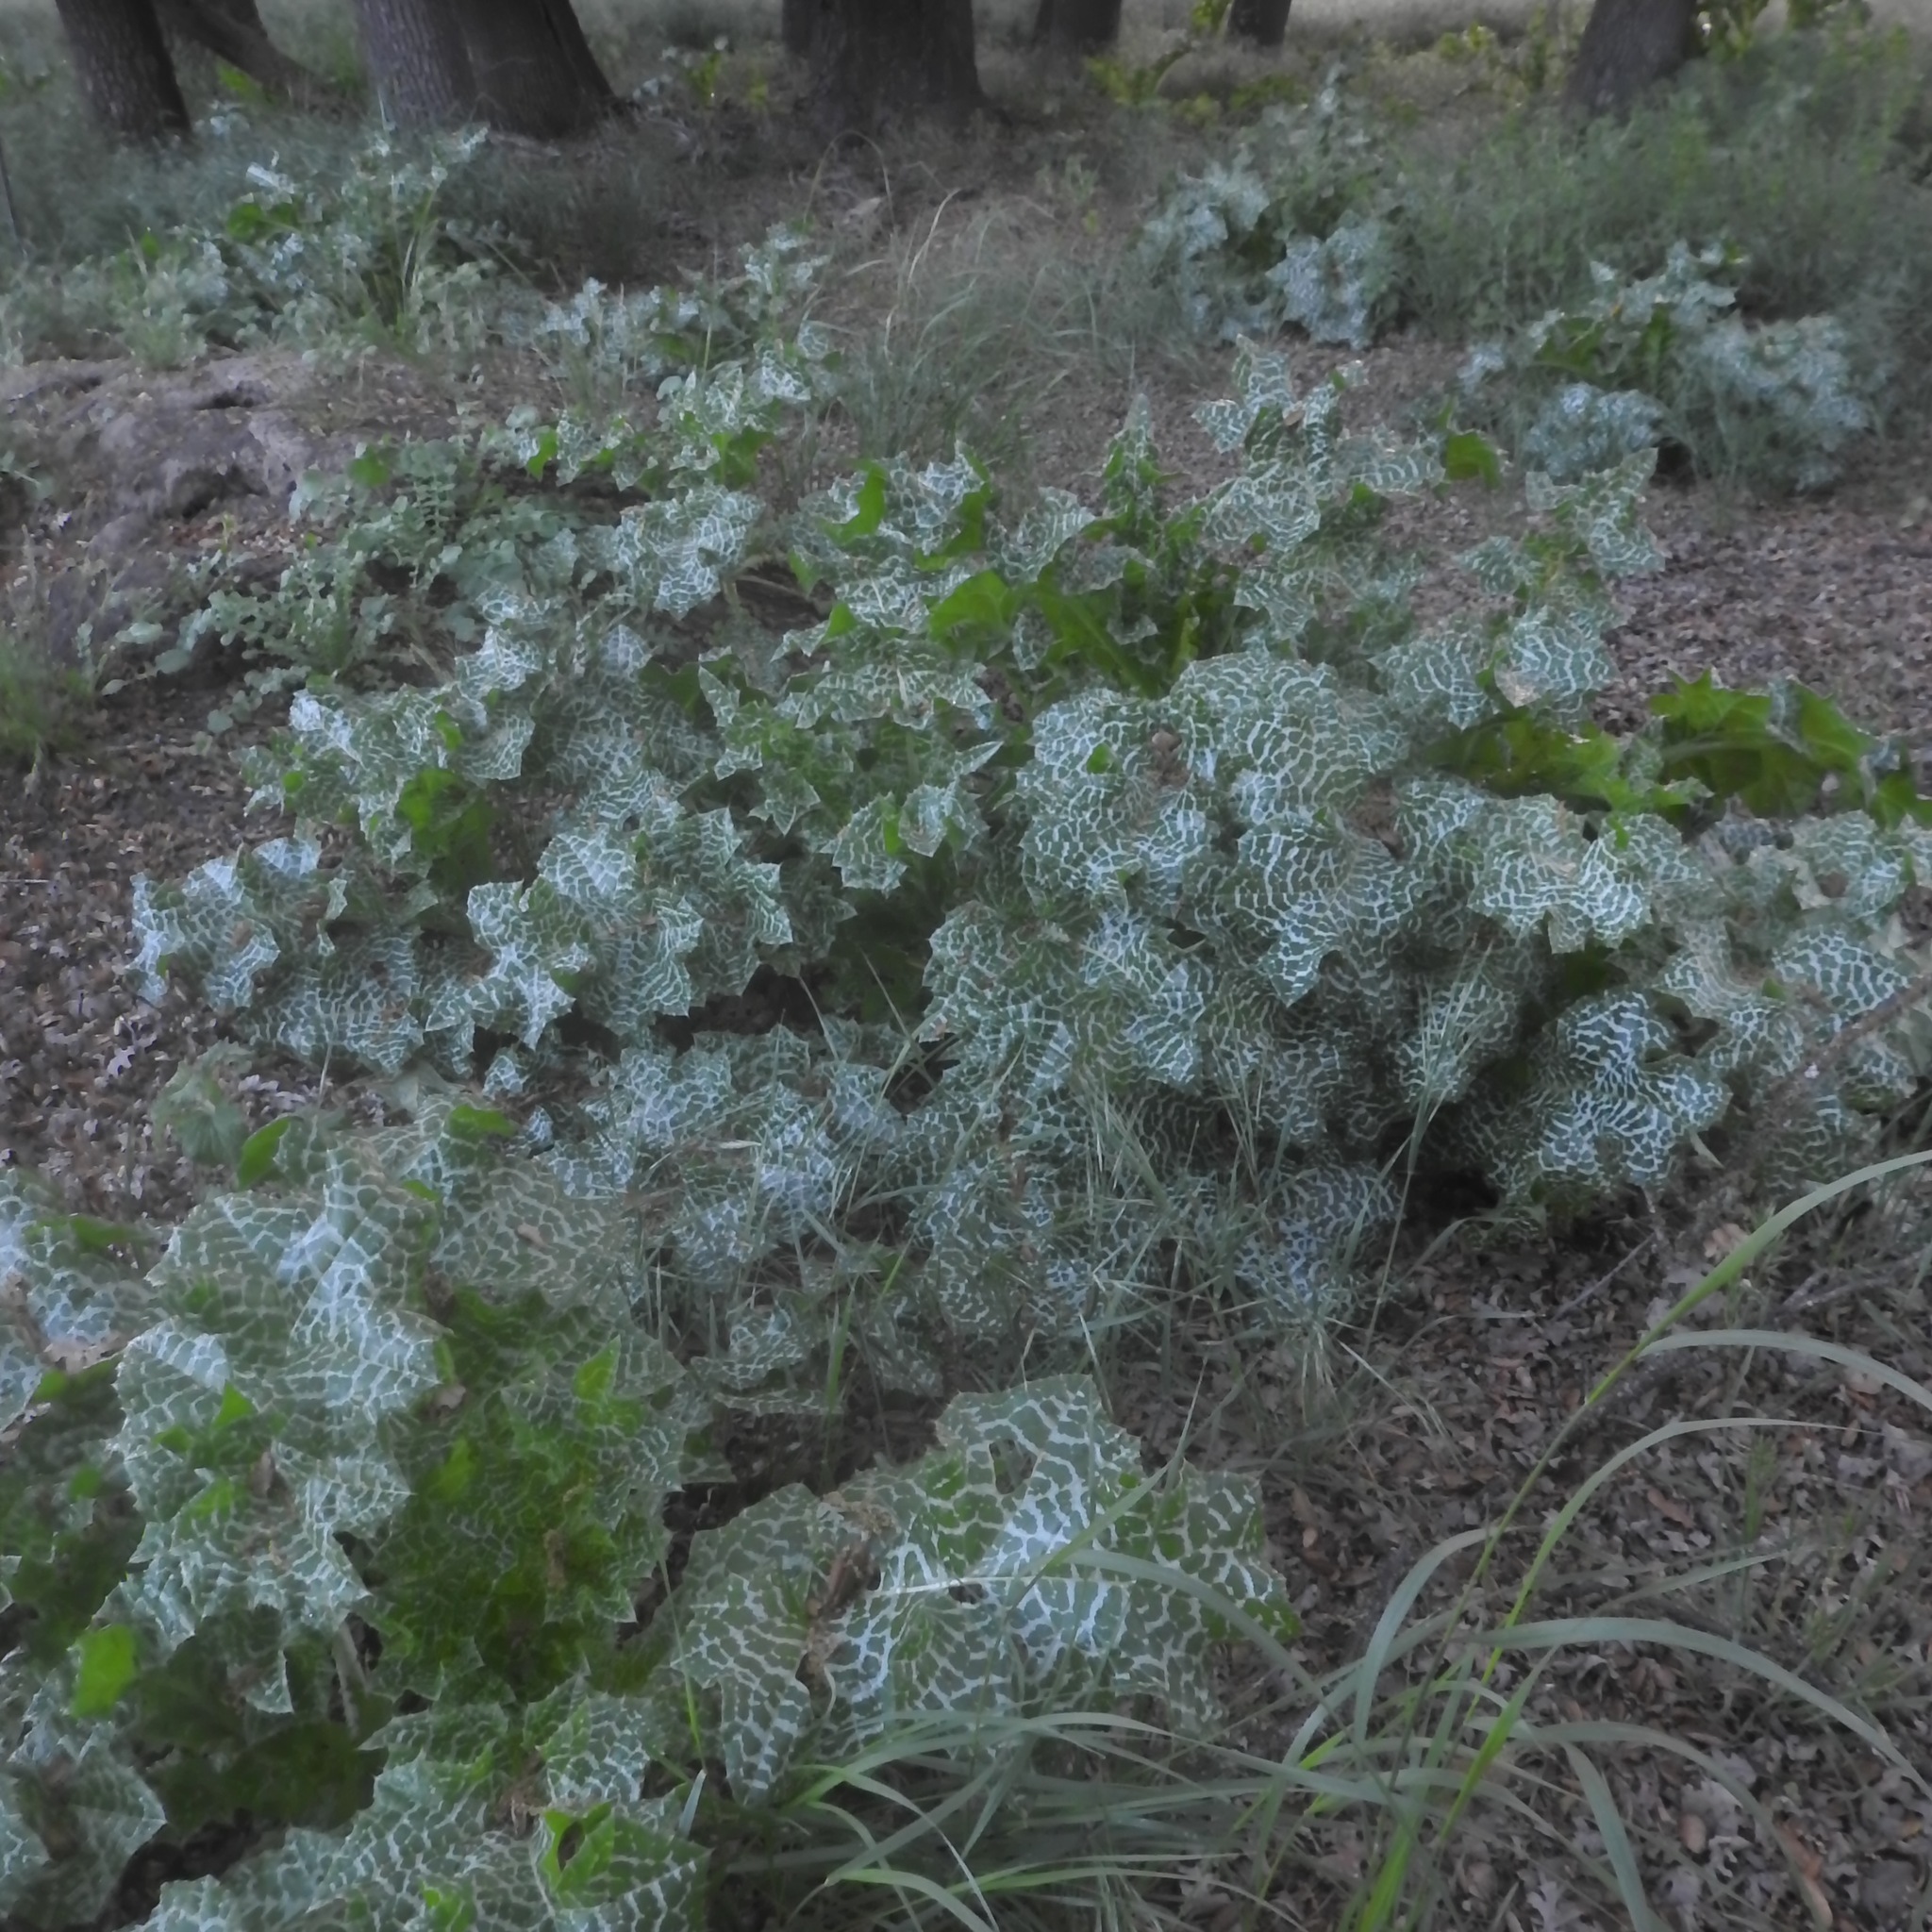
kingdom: Plantae
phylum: Tracheophyta
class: Magnoliopsida
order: Asterales
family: Asteraceae
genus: Silybum
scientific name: Silybum marianum
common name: Milk thistle
